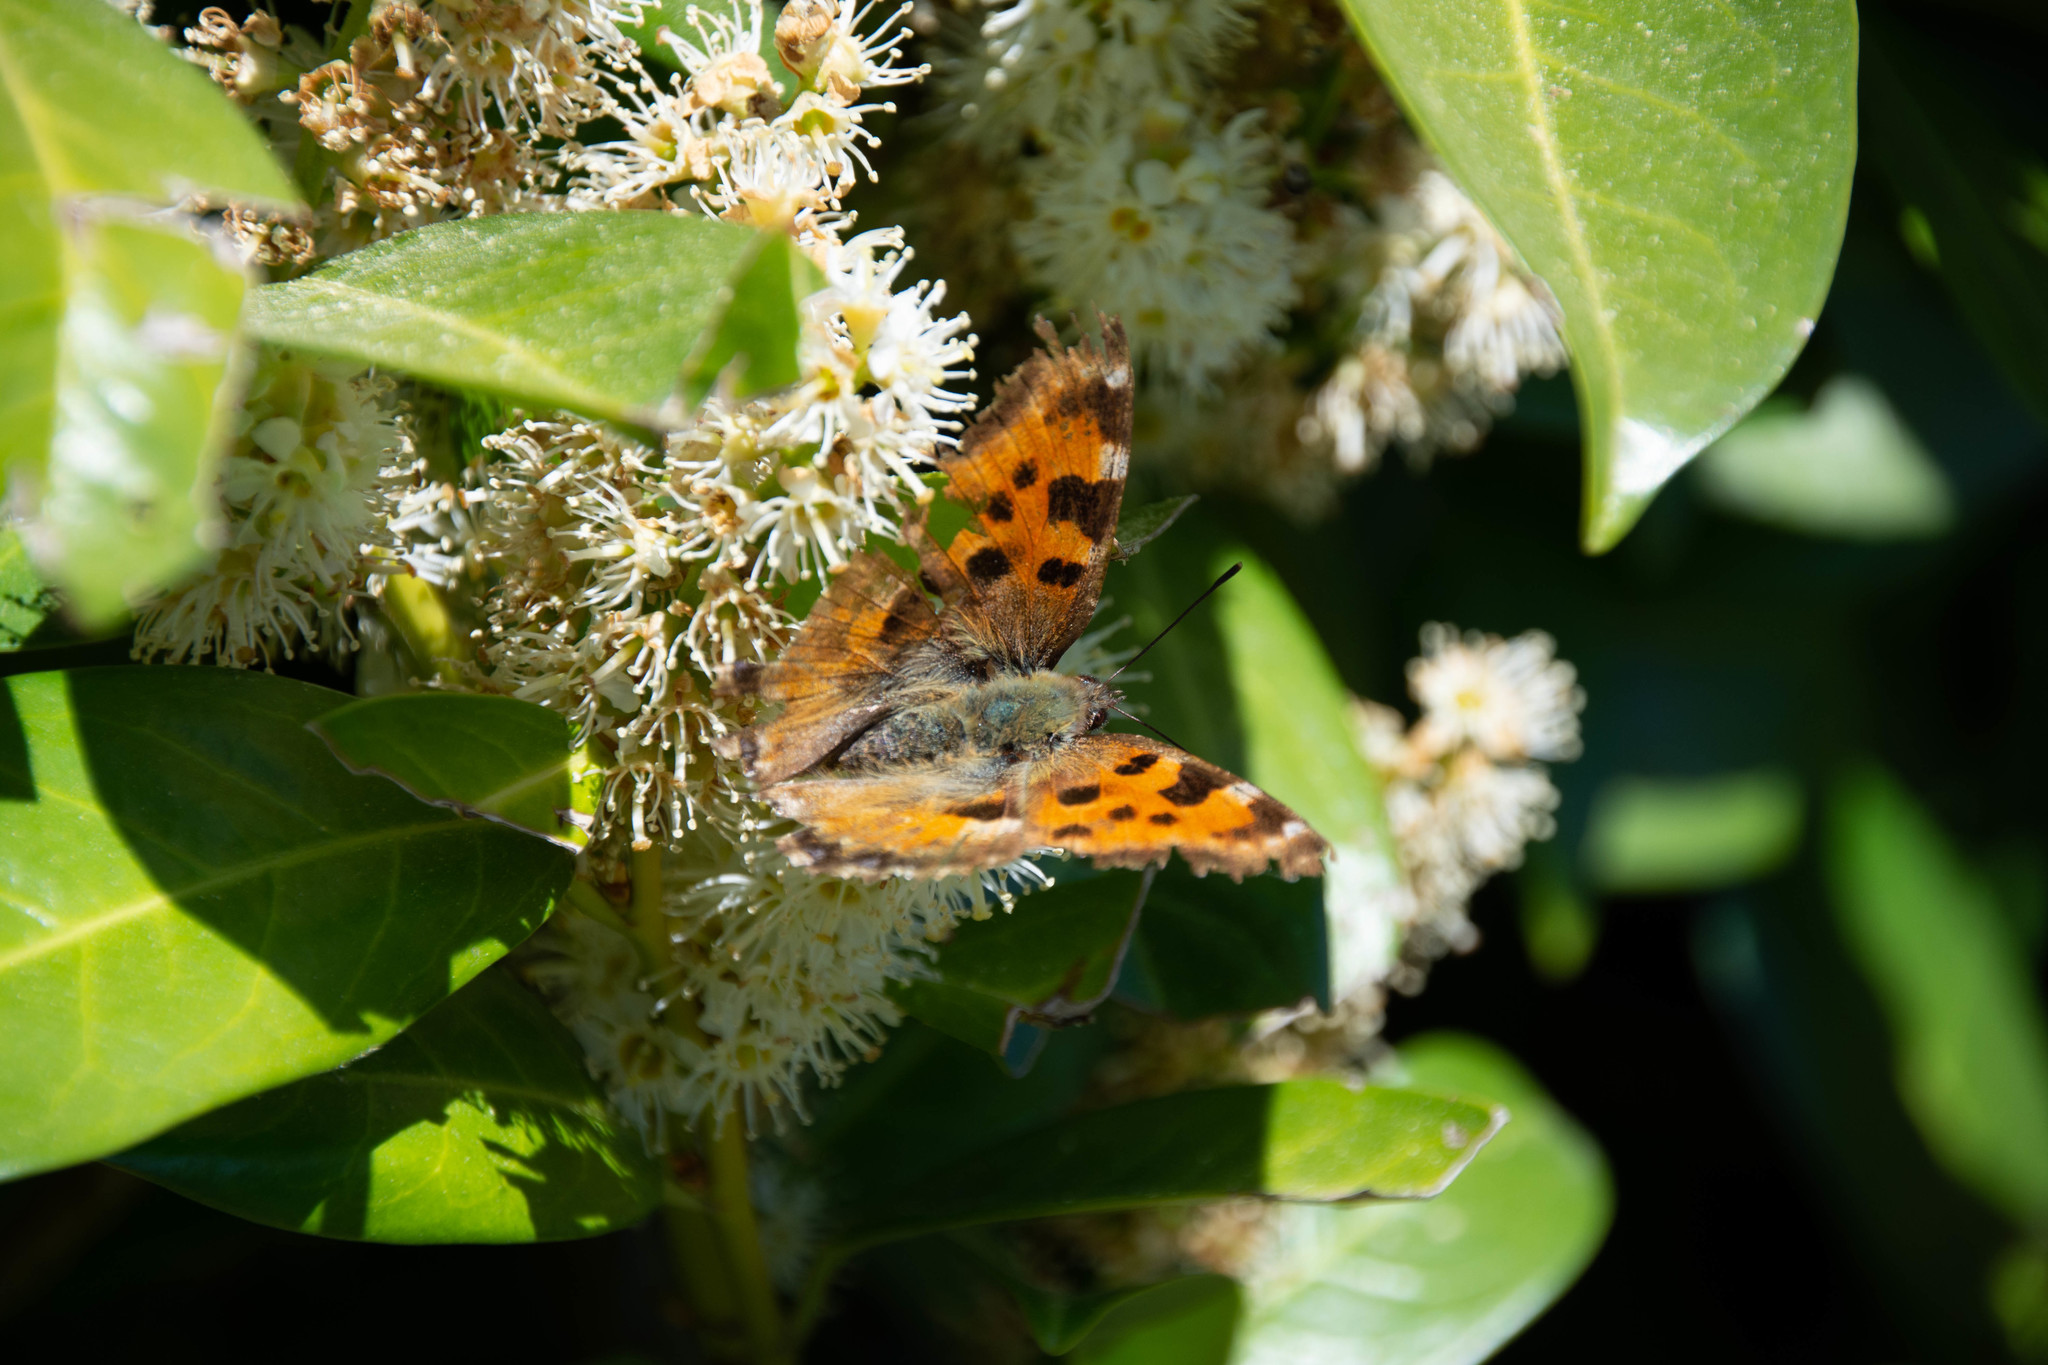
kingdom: Animalia
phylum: Arthropoda
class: Insecta
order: Lepidoptera
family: Nymphalidae
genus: Nymphalis
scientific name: Nymphalis polychloros
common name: Large tortoiseshell
